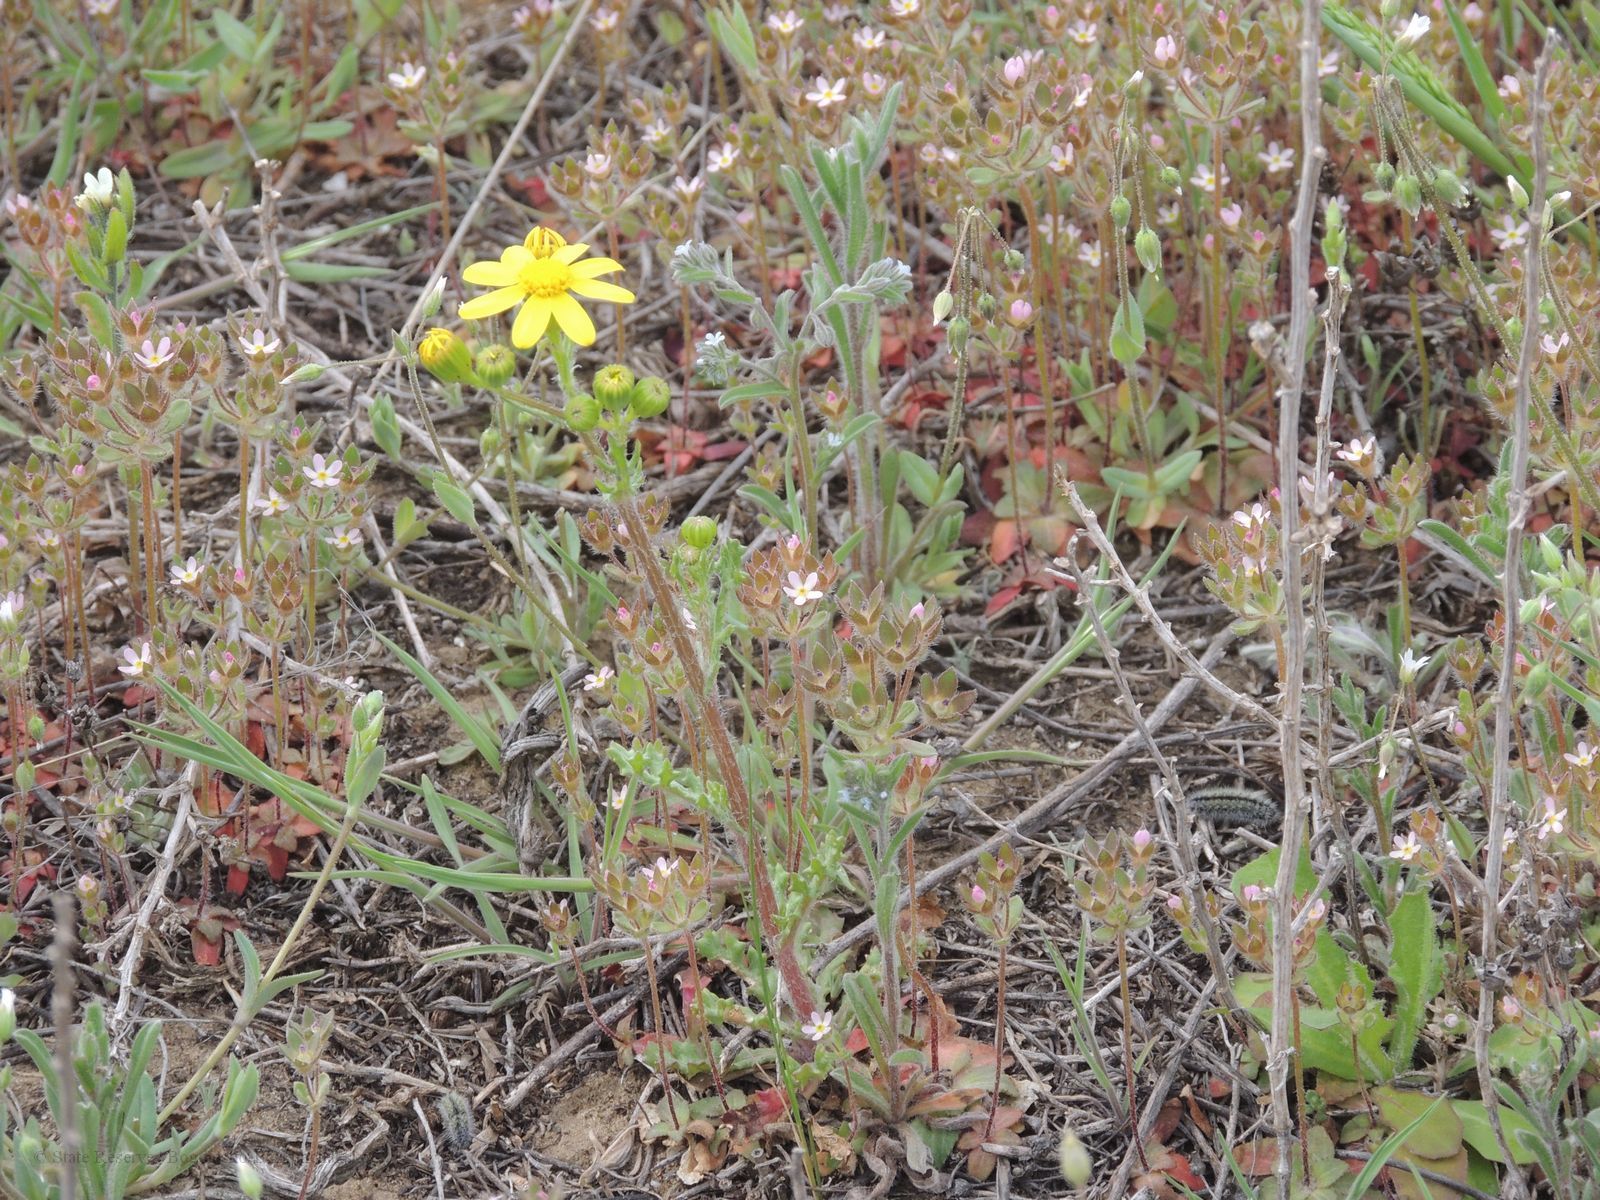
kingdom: Plantae
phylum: Tracheophyta
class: Magnoliopsida
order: Asterales
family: Asteraceae
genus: Senecio
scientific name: Senecio vernalis
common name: Eastern groundsel
